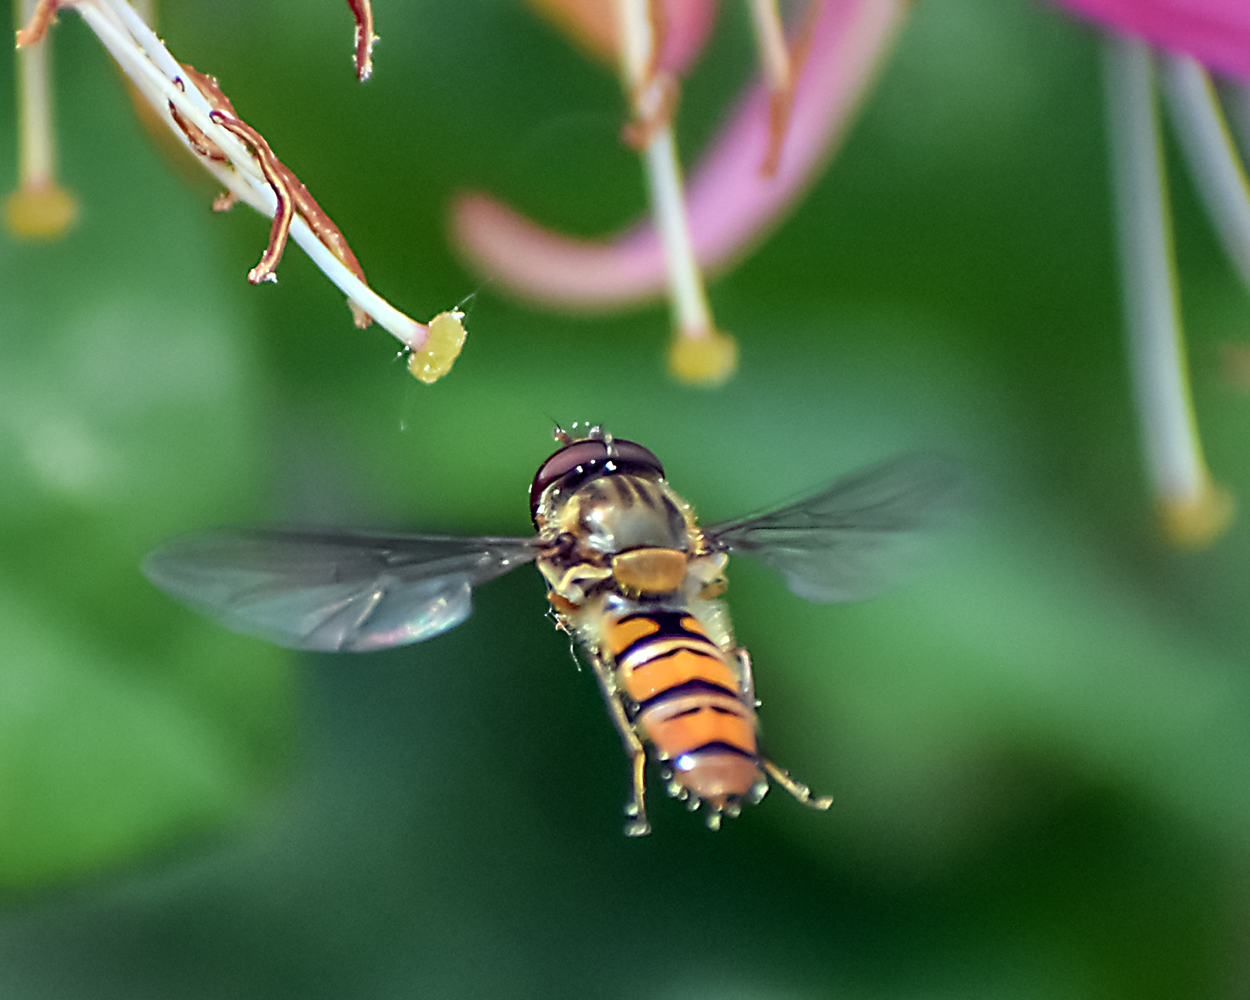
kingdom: Animalia
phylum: Arthropoda
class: Insecta
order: Diptera
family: Syrphidae
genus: Episyrphus
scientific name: Episyrphus balteatus
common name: Marmalade hoverfly
